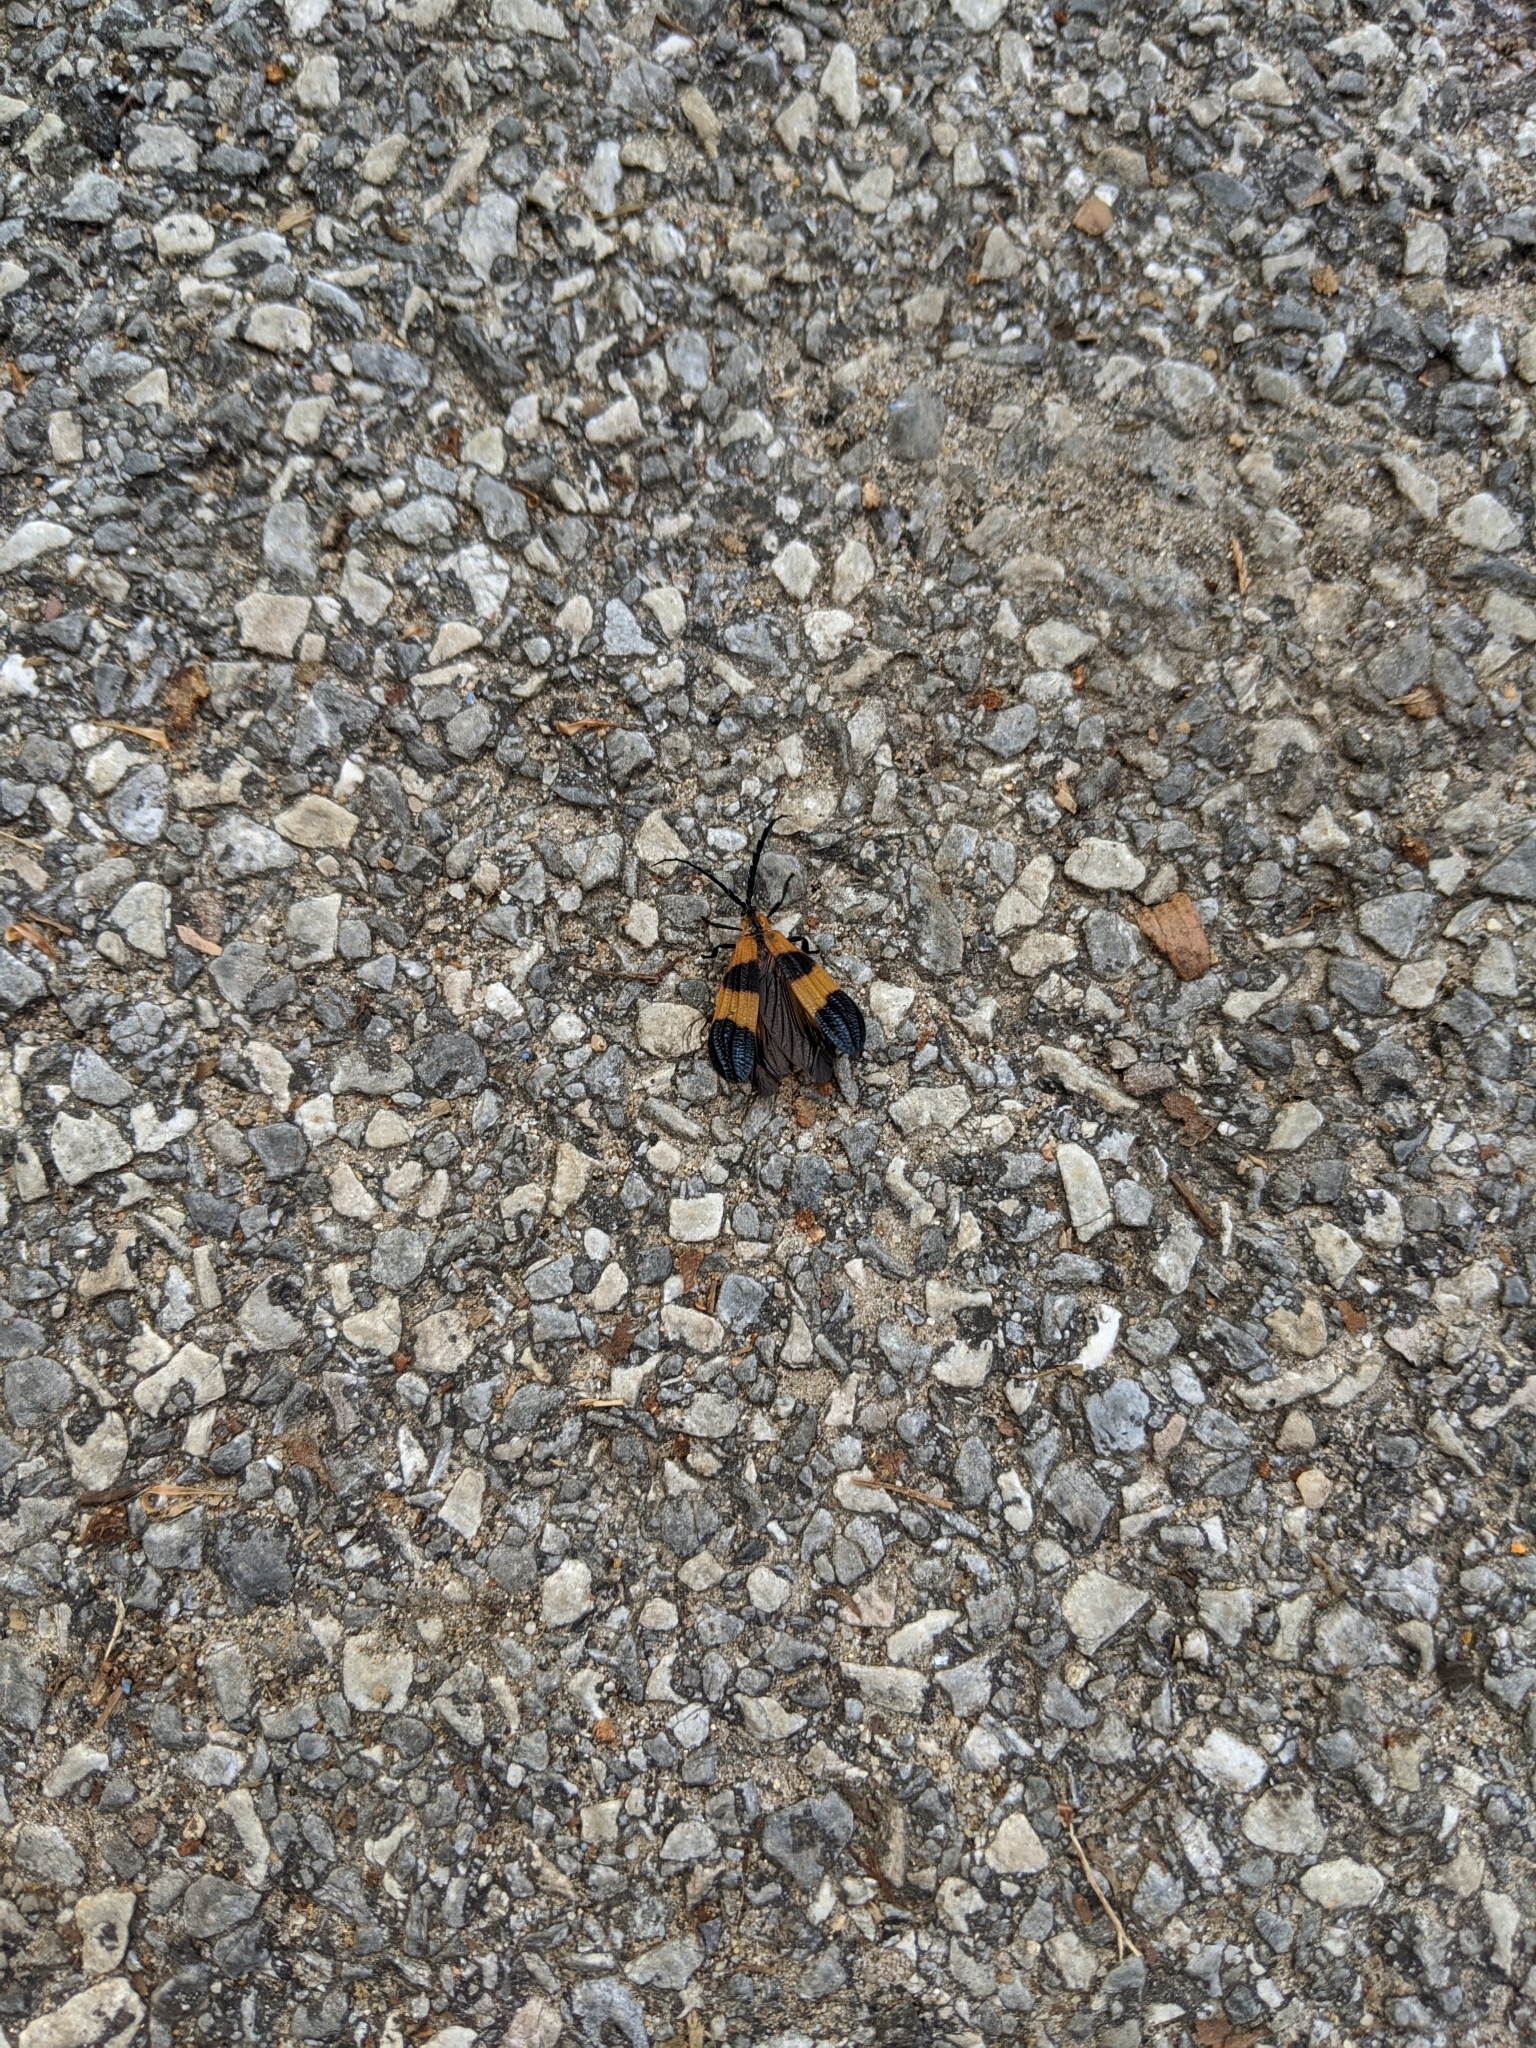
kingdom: Animalia
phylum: Arthropoda
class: Insecta
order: Coleoptera
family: Lycidae
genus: Calopteron
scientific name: Calopteron terminale
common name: End band net-winged beetle
